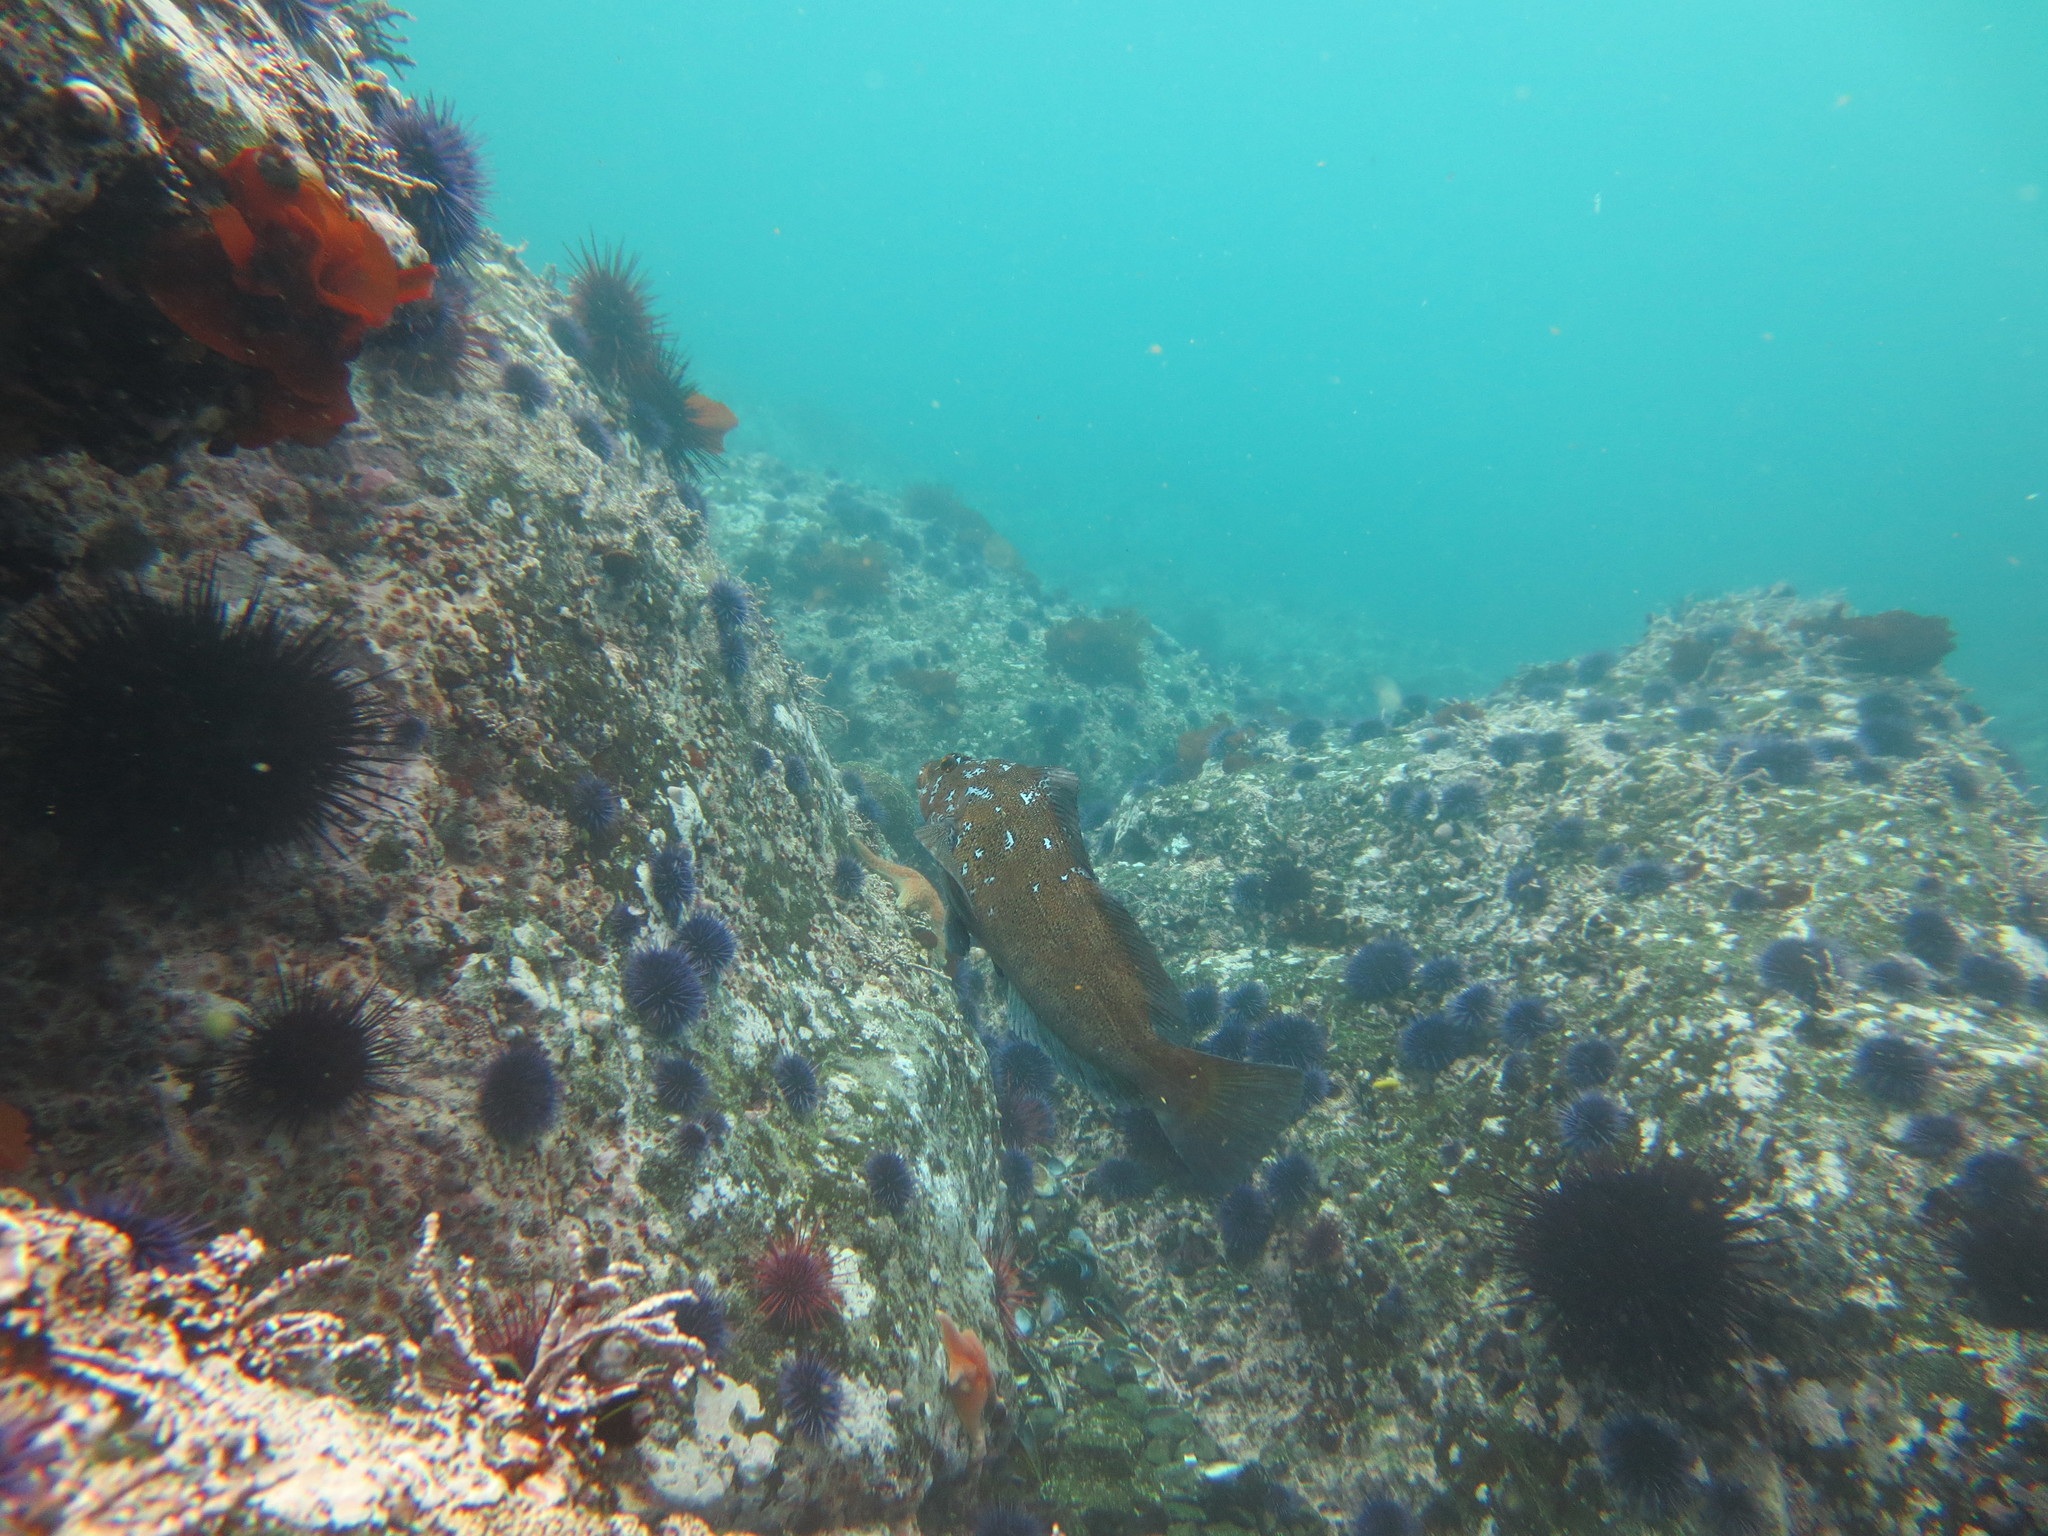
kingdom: Animalia
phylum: Chordata
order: Scorpaeniformes
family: Hexagrammidae
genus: Hexagrammos
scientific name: Hexagrammos decagrammus
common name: Kelp greenling
